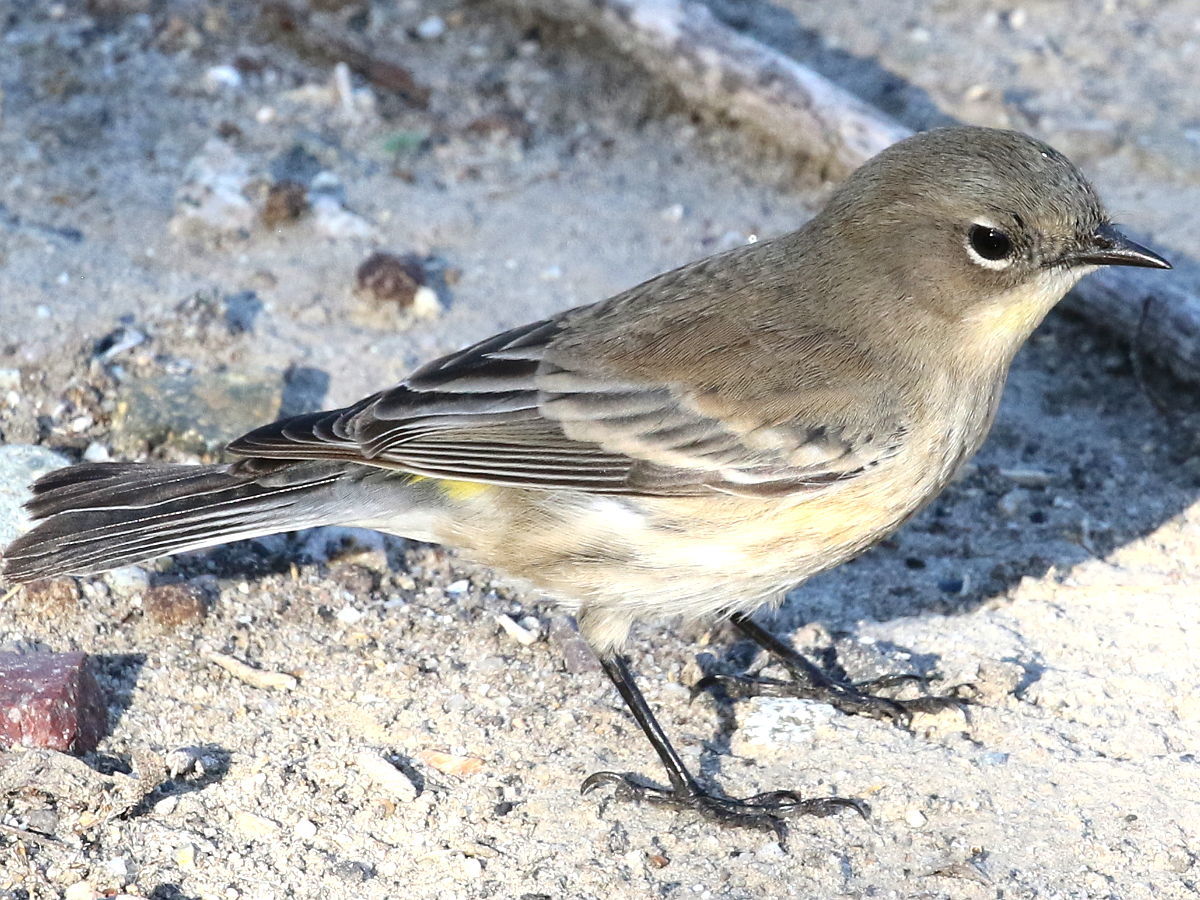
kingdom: Animalia
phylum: Chordata
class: Aves
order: Passeriformes
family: Parulidae
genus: Setophaga
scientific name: Setophaga coronata
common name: Myrtle warbler
